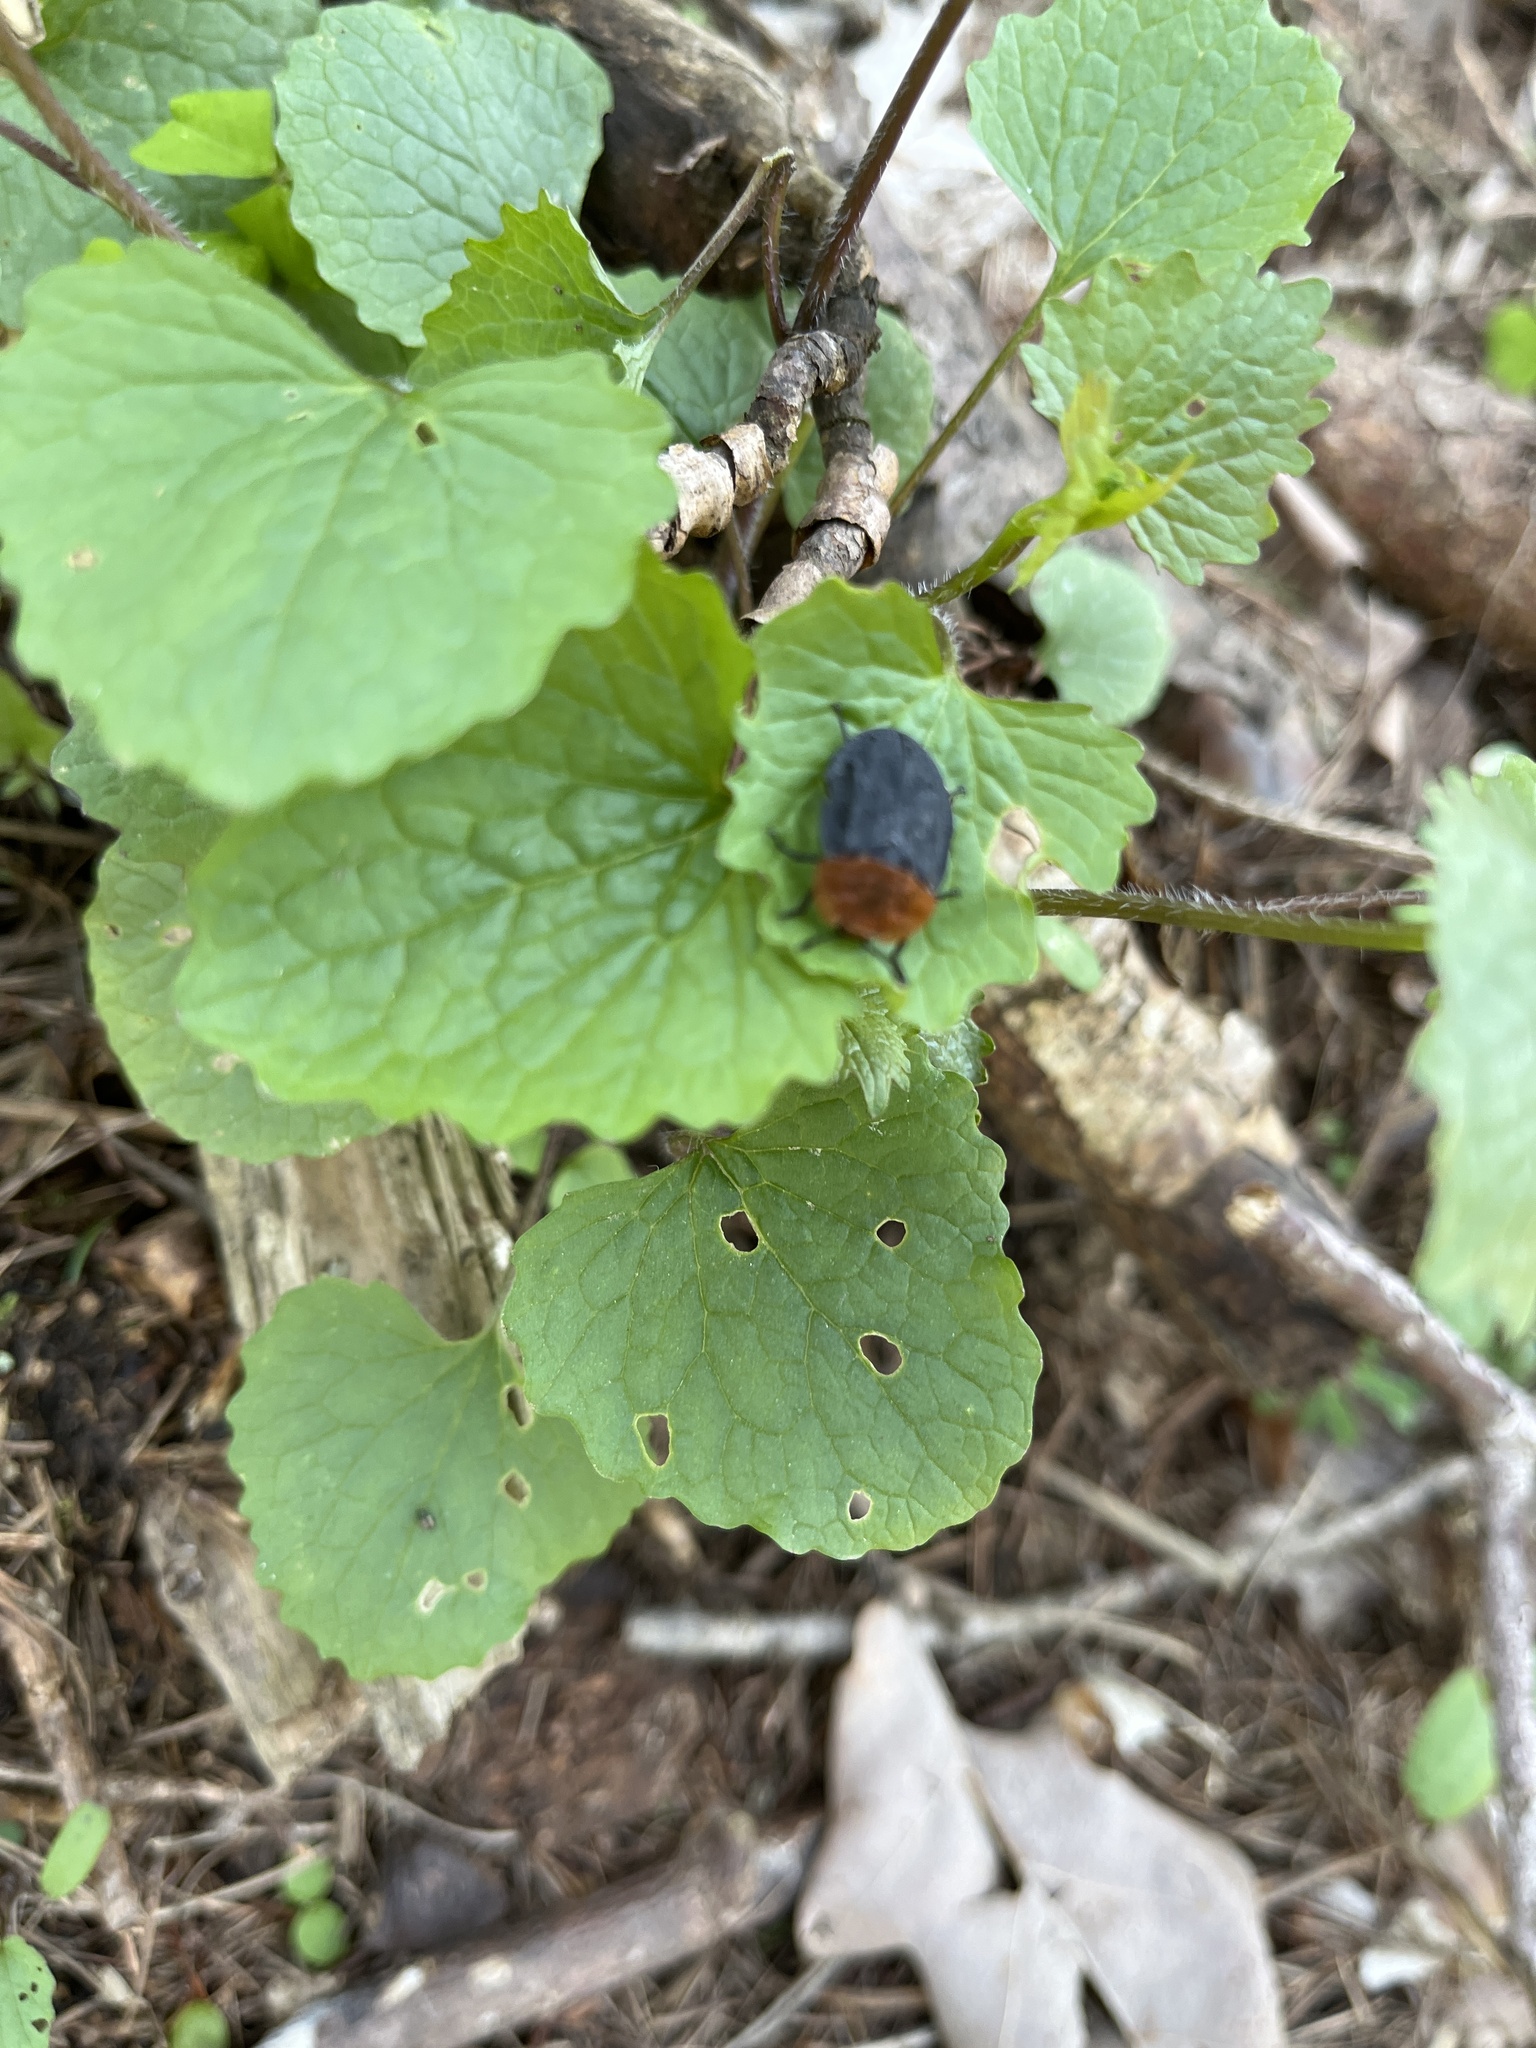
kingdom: Animalia
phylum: Arthropoda
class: Insecta
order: Coleoptera
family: Staphylinidae
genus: Oiceoptoma
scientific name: Oiceoptoma thoracicum
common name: Red-breasted carrion beetle
